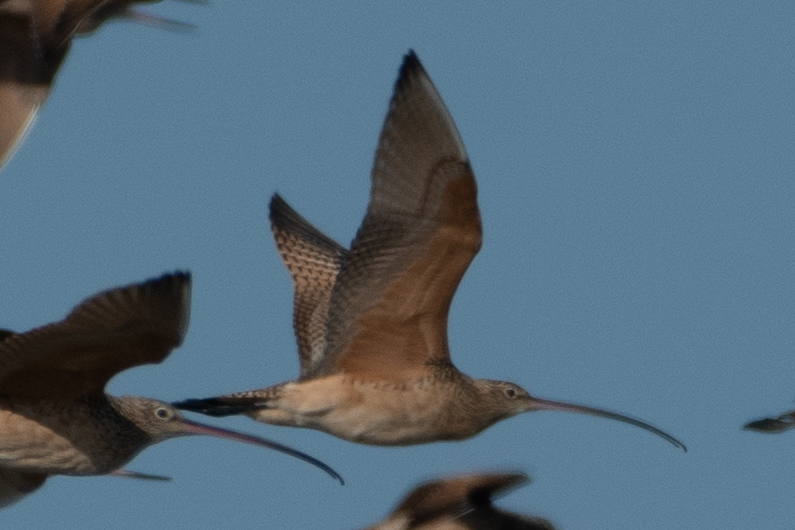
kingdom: Animalia
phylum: Chordata
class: Aves
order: Charadriiformes
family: Scolopacidae
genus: Numenius
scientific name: Numenius americanus
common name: Long-billed curlew
